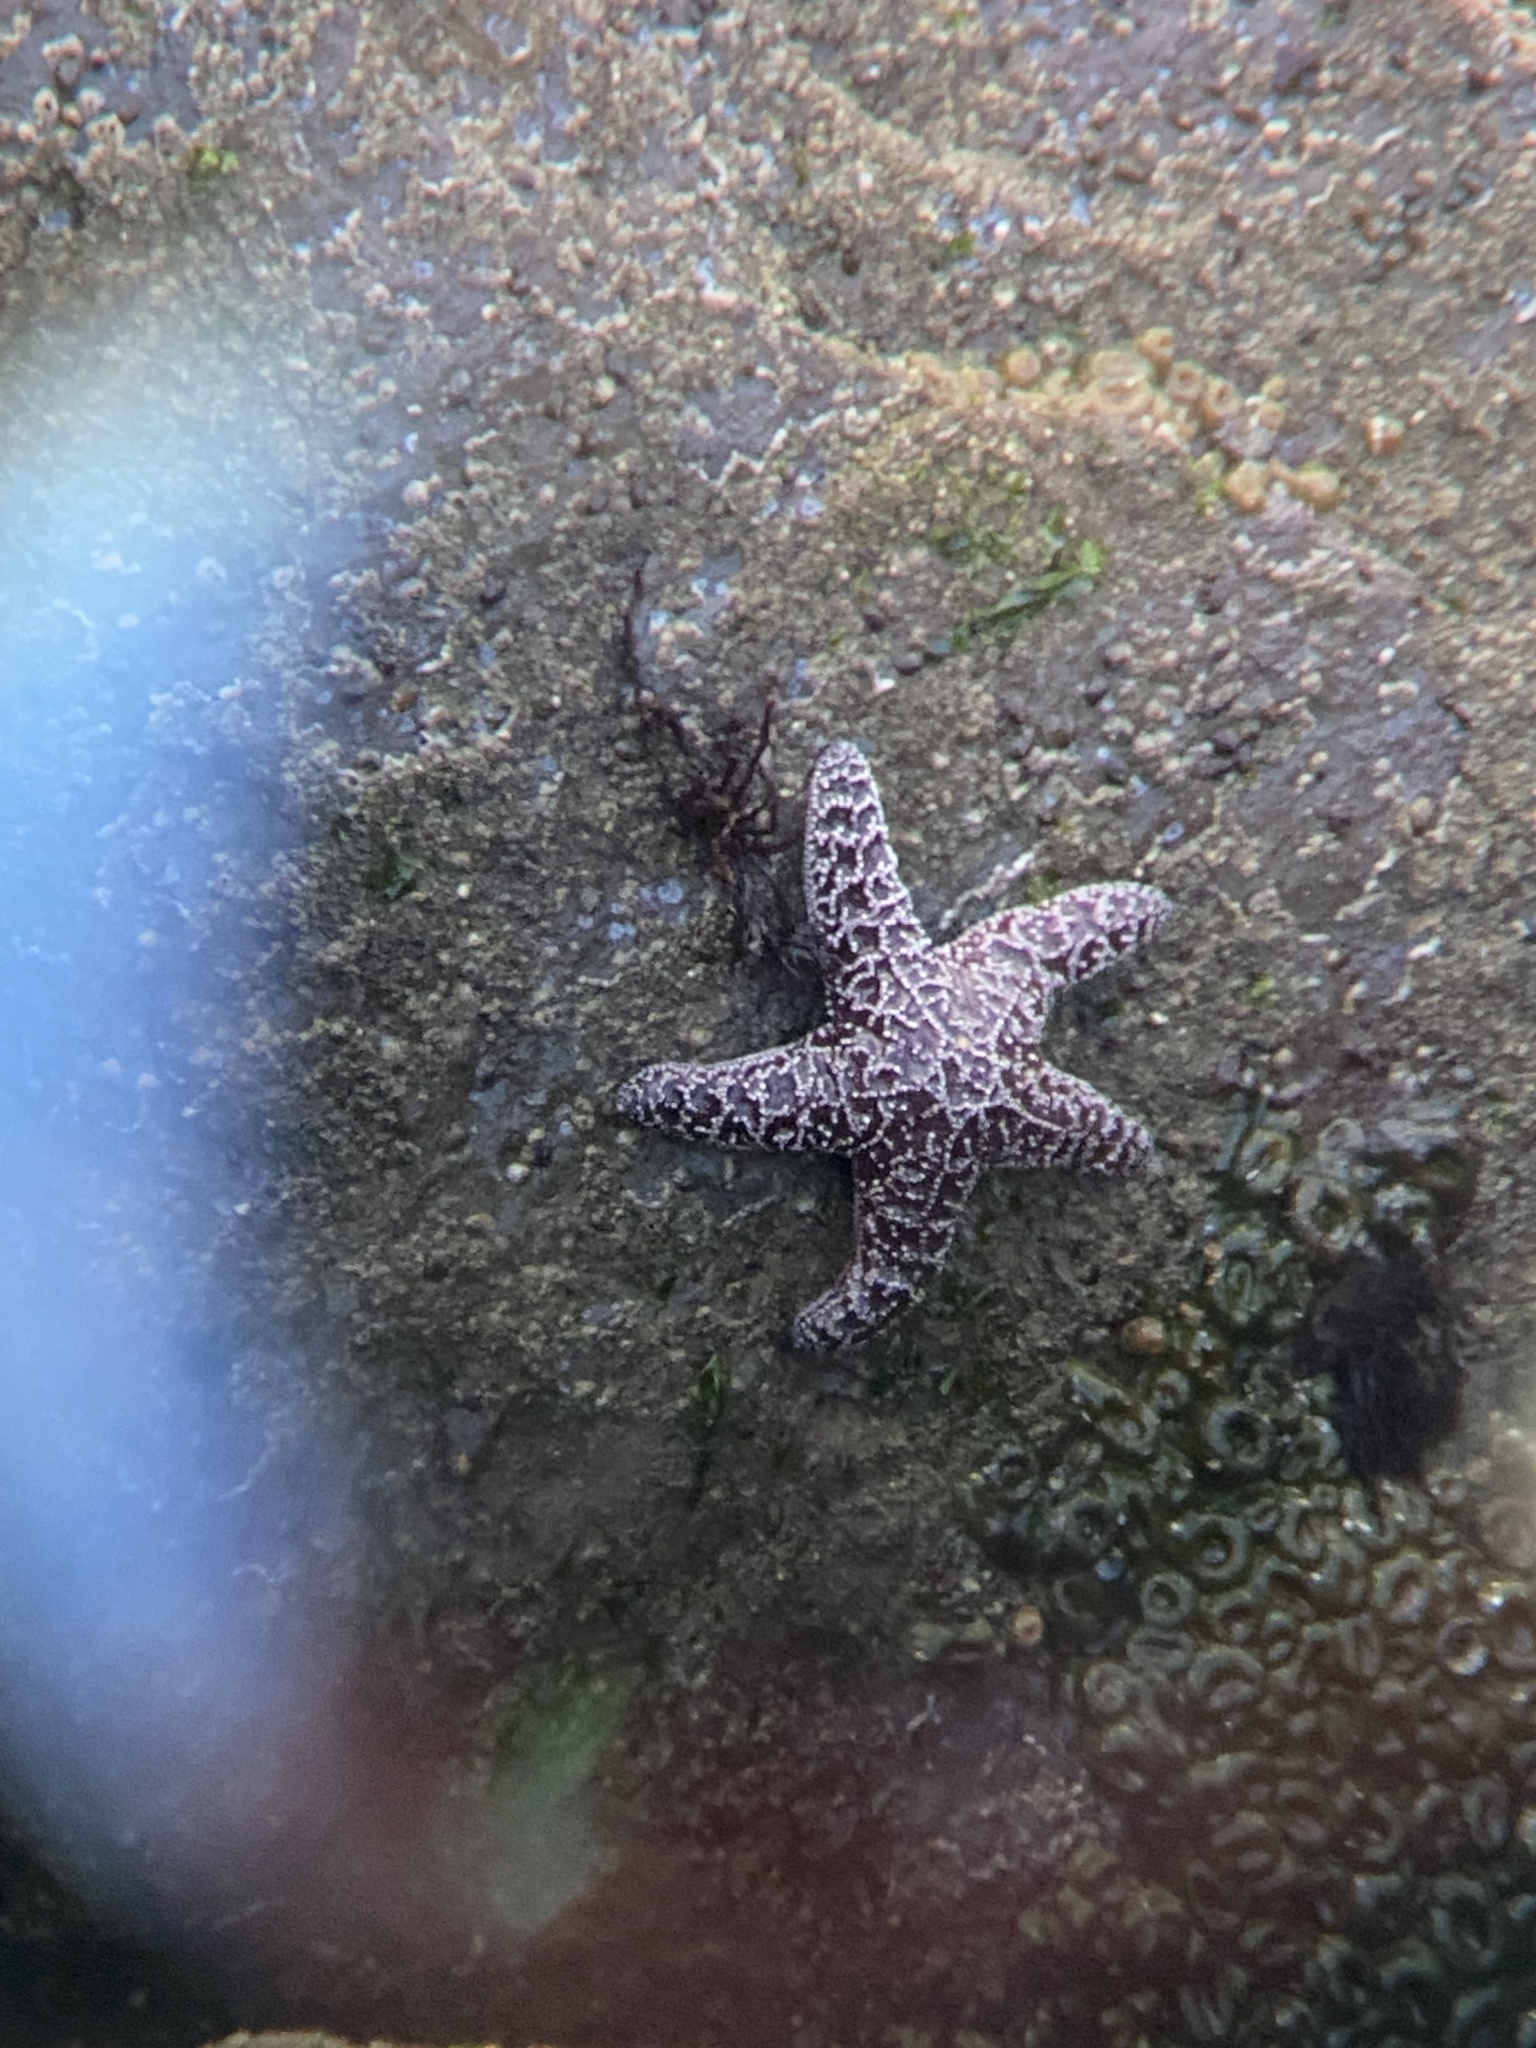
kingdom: Animalia
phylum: Echinodermata
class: Asteroidea
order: Forcipulatida
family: Asteriidae
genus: Pisaster
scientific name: Pisaster ochraceus
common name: Ochre stars
